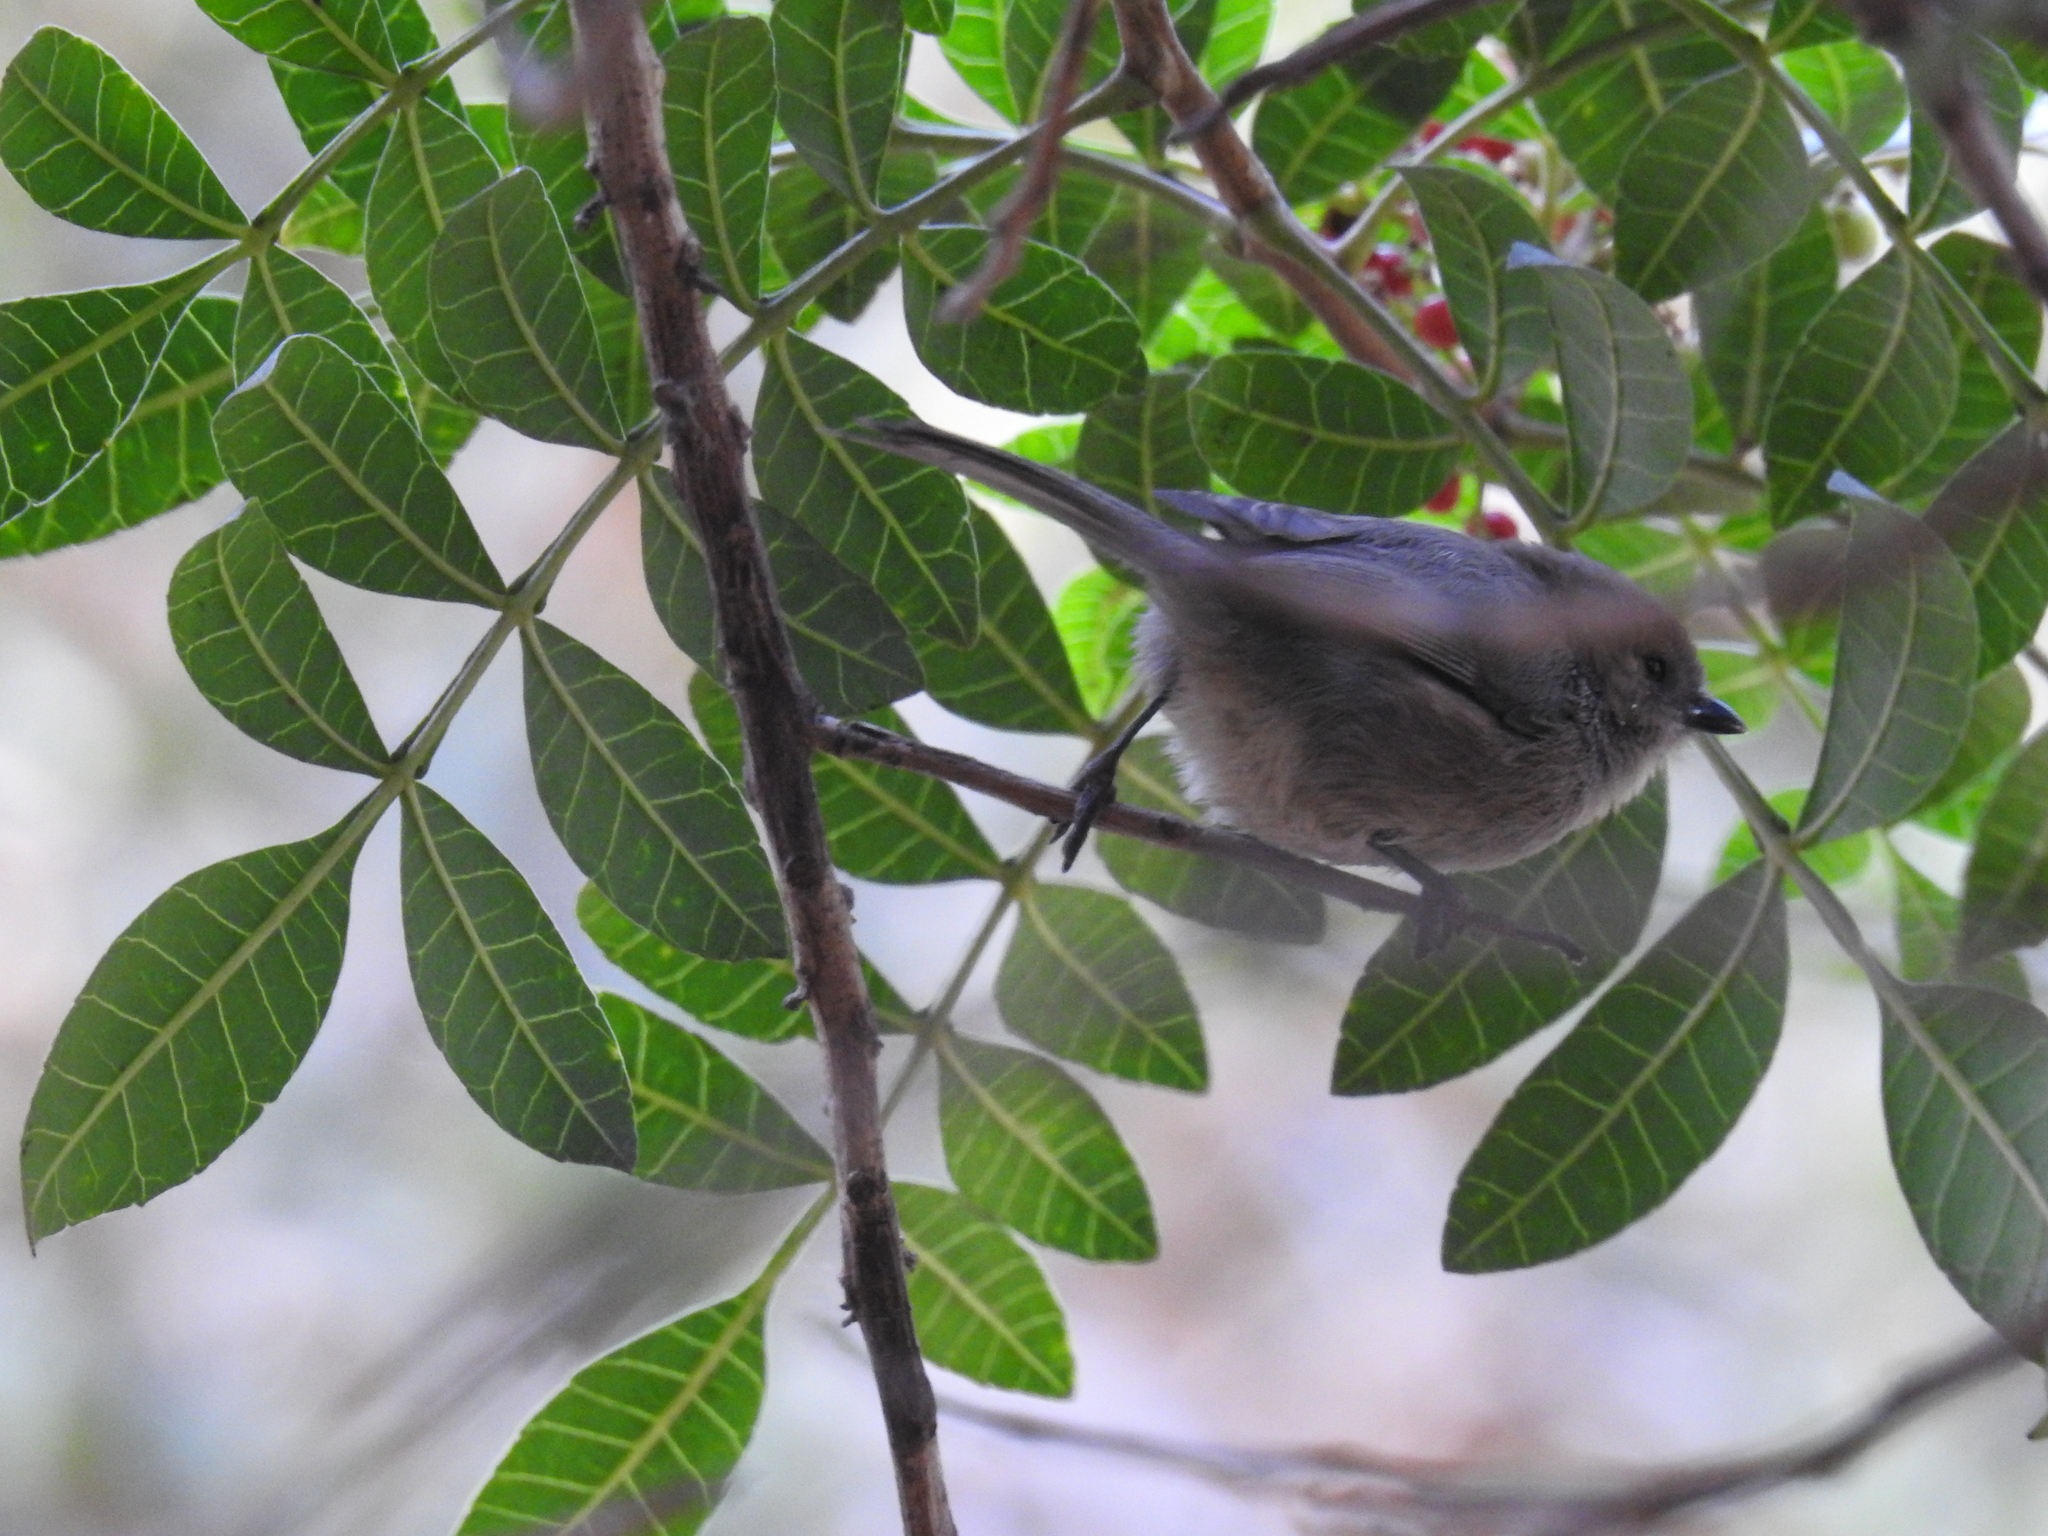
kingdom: Animalia
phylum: Chordata
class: Aves
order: Passeriformes
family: Aegithalidae
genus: Psaltriparus
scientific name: Psaltriparus minimus
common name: American bushtit
